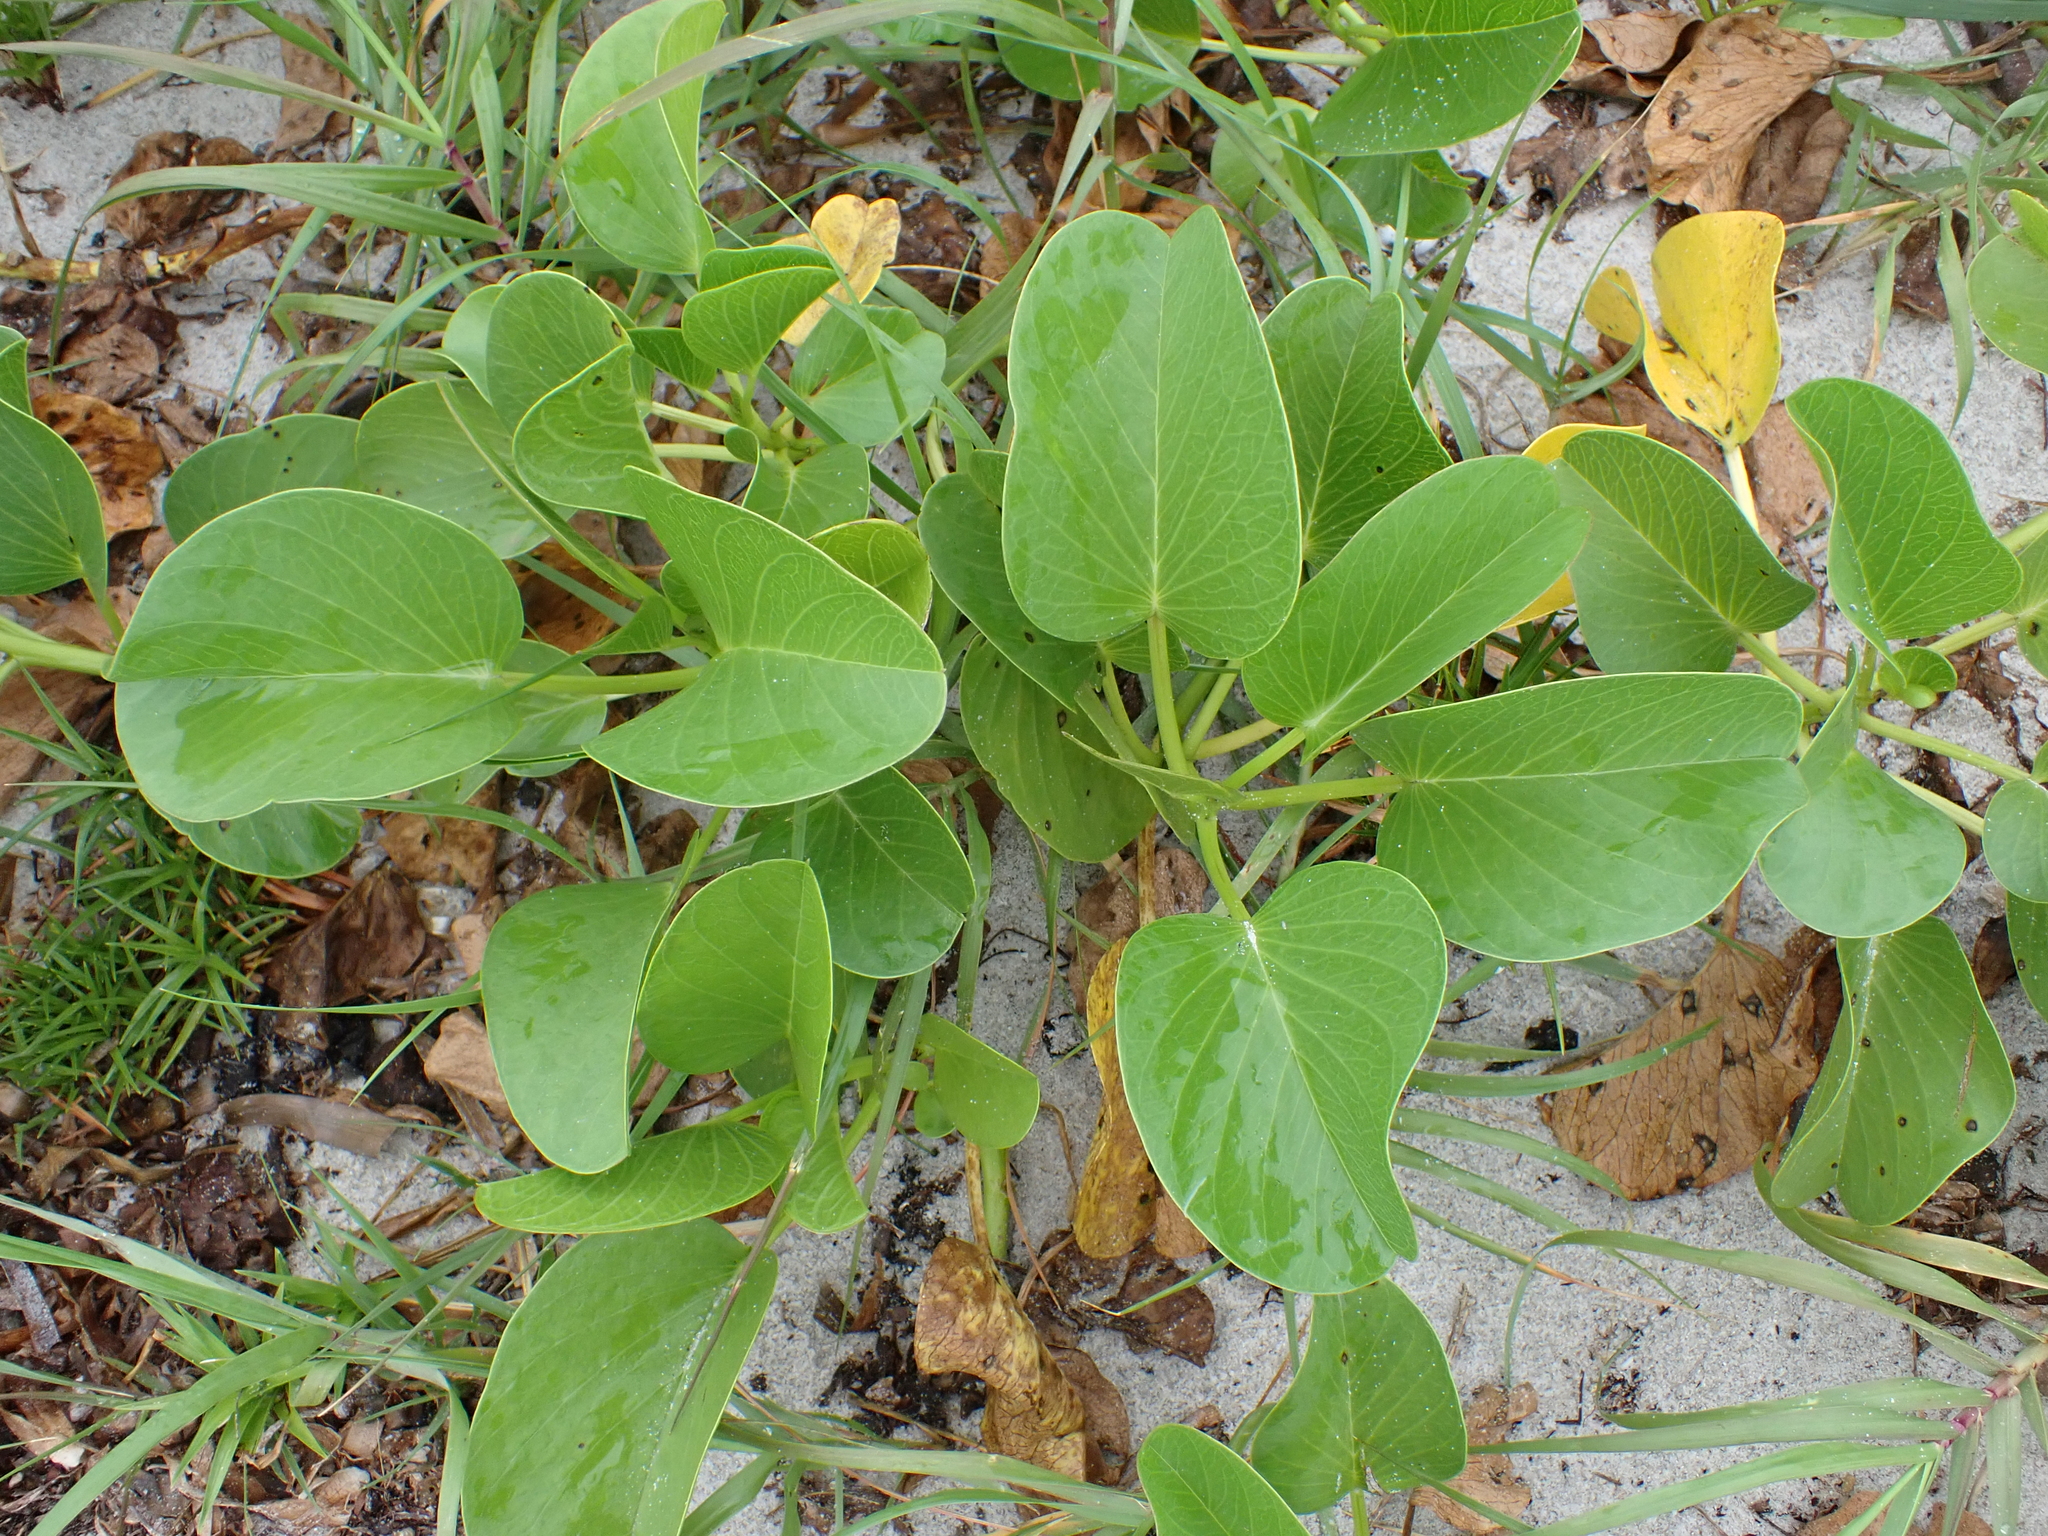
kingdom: Plantae
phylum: Tracheophyta
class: Magnoliopsida
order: Solanales
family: Convolvulaceae
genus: Ipomoea
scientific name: Ipomoea pes-caprae
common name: Beach morning glory
